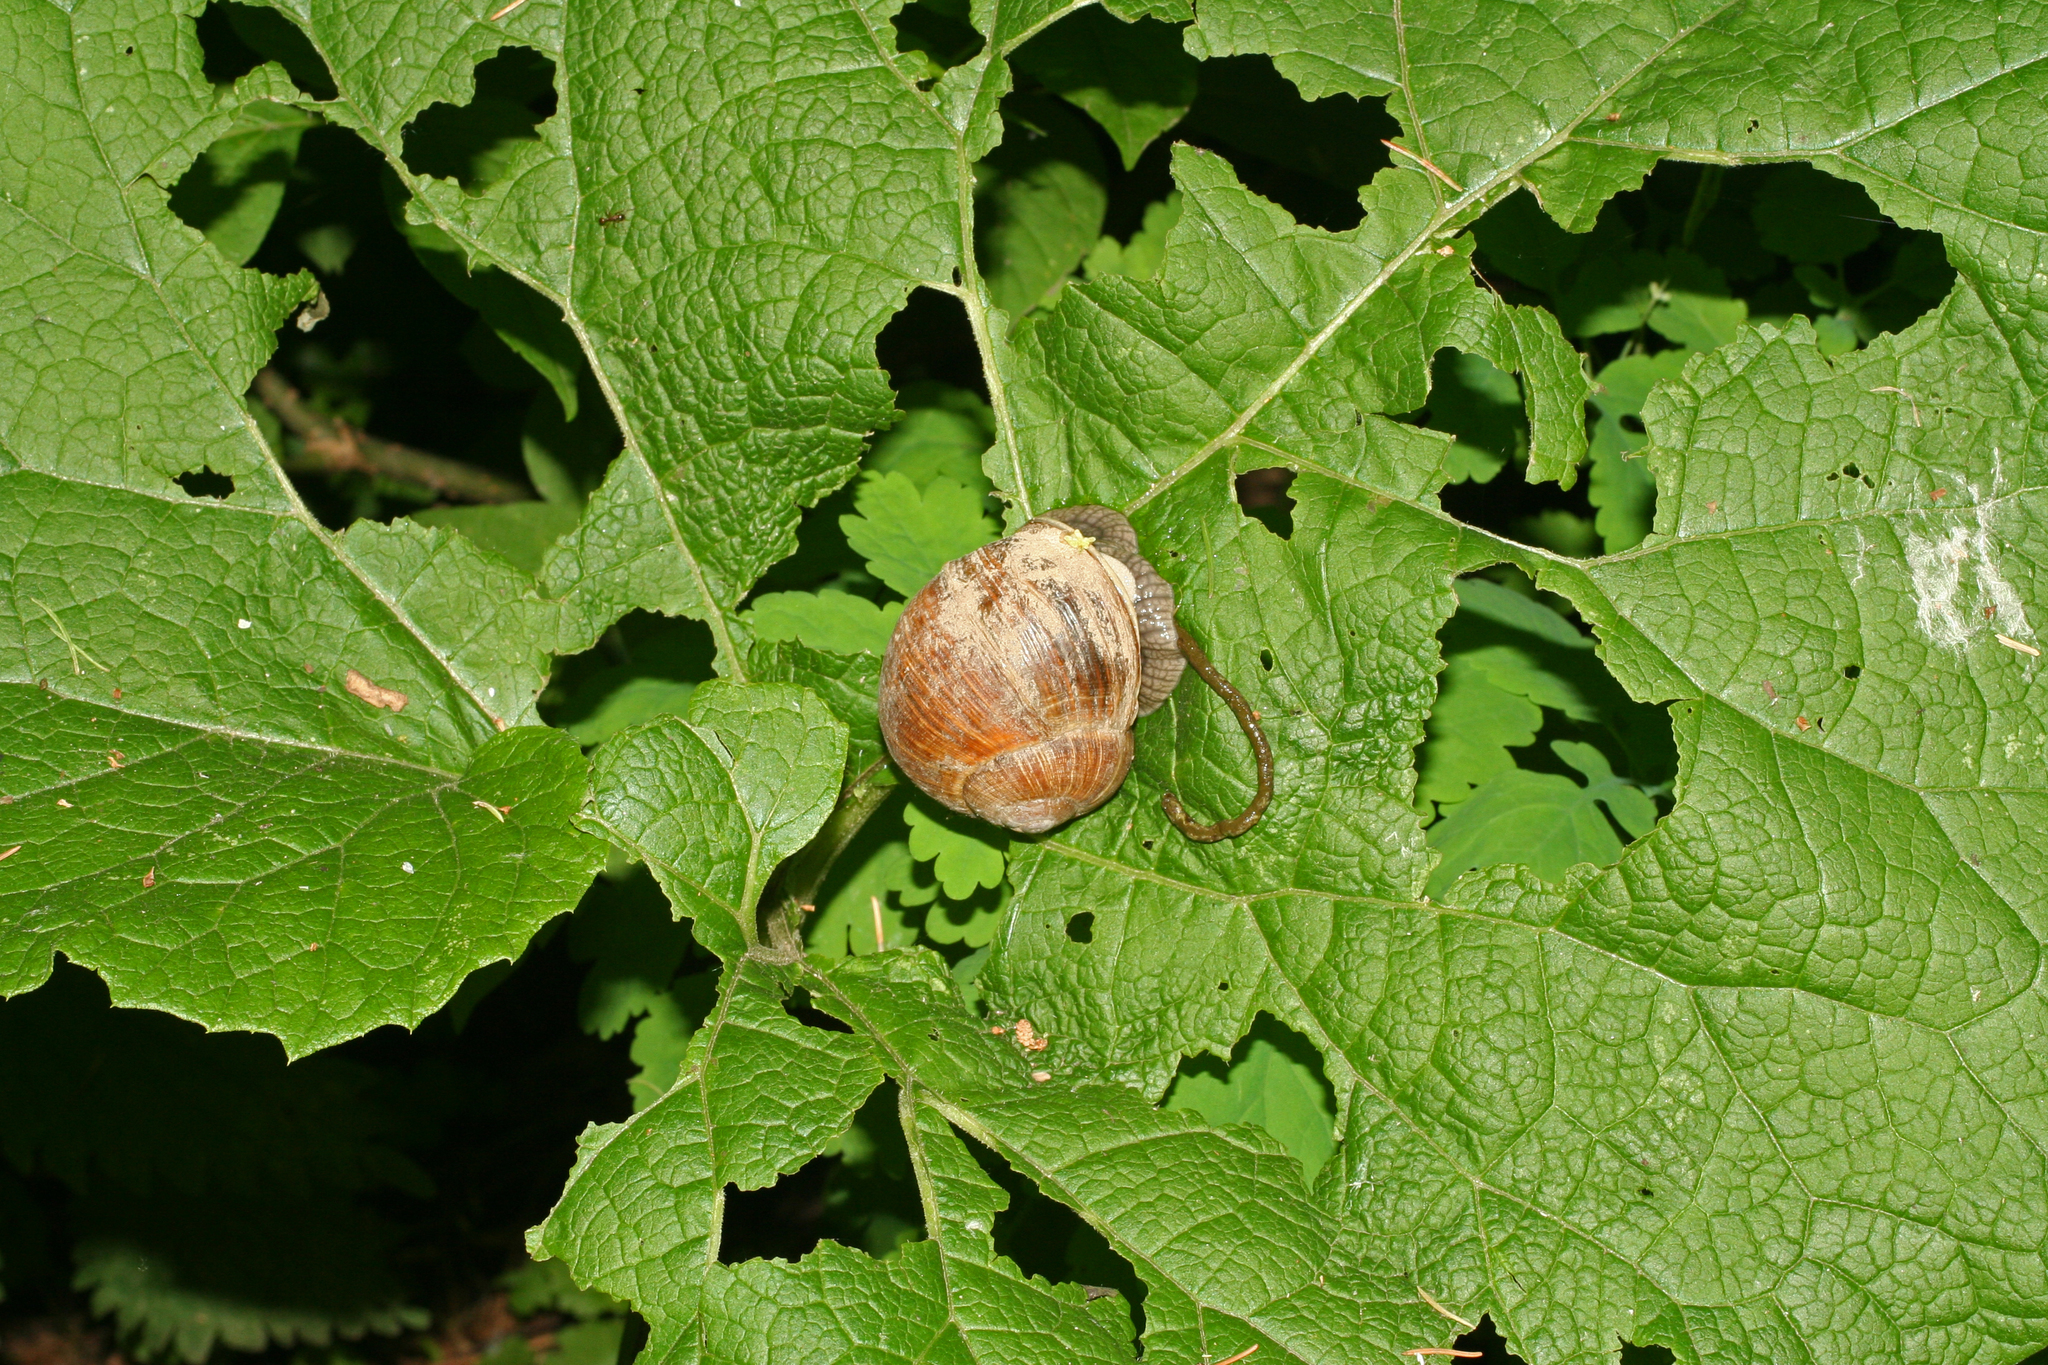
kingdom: Animalia
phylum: Mollusca
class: Gastropoda
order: Stylommatophora
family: Helicidae
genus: Helix
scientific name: Helix pomatia
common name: Roman snail
